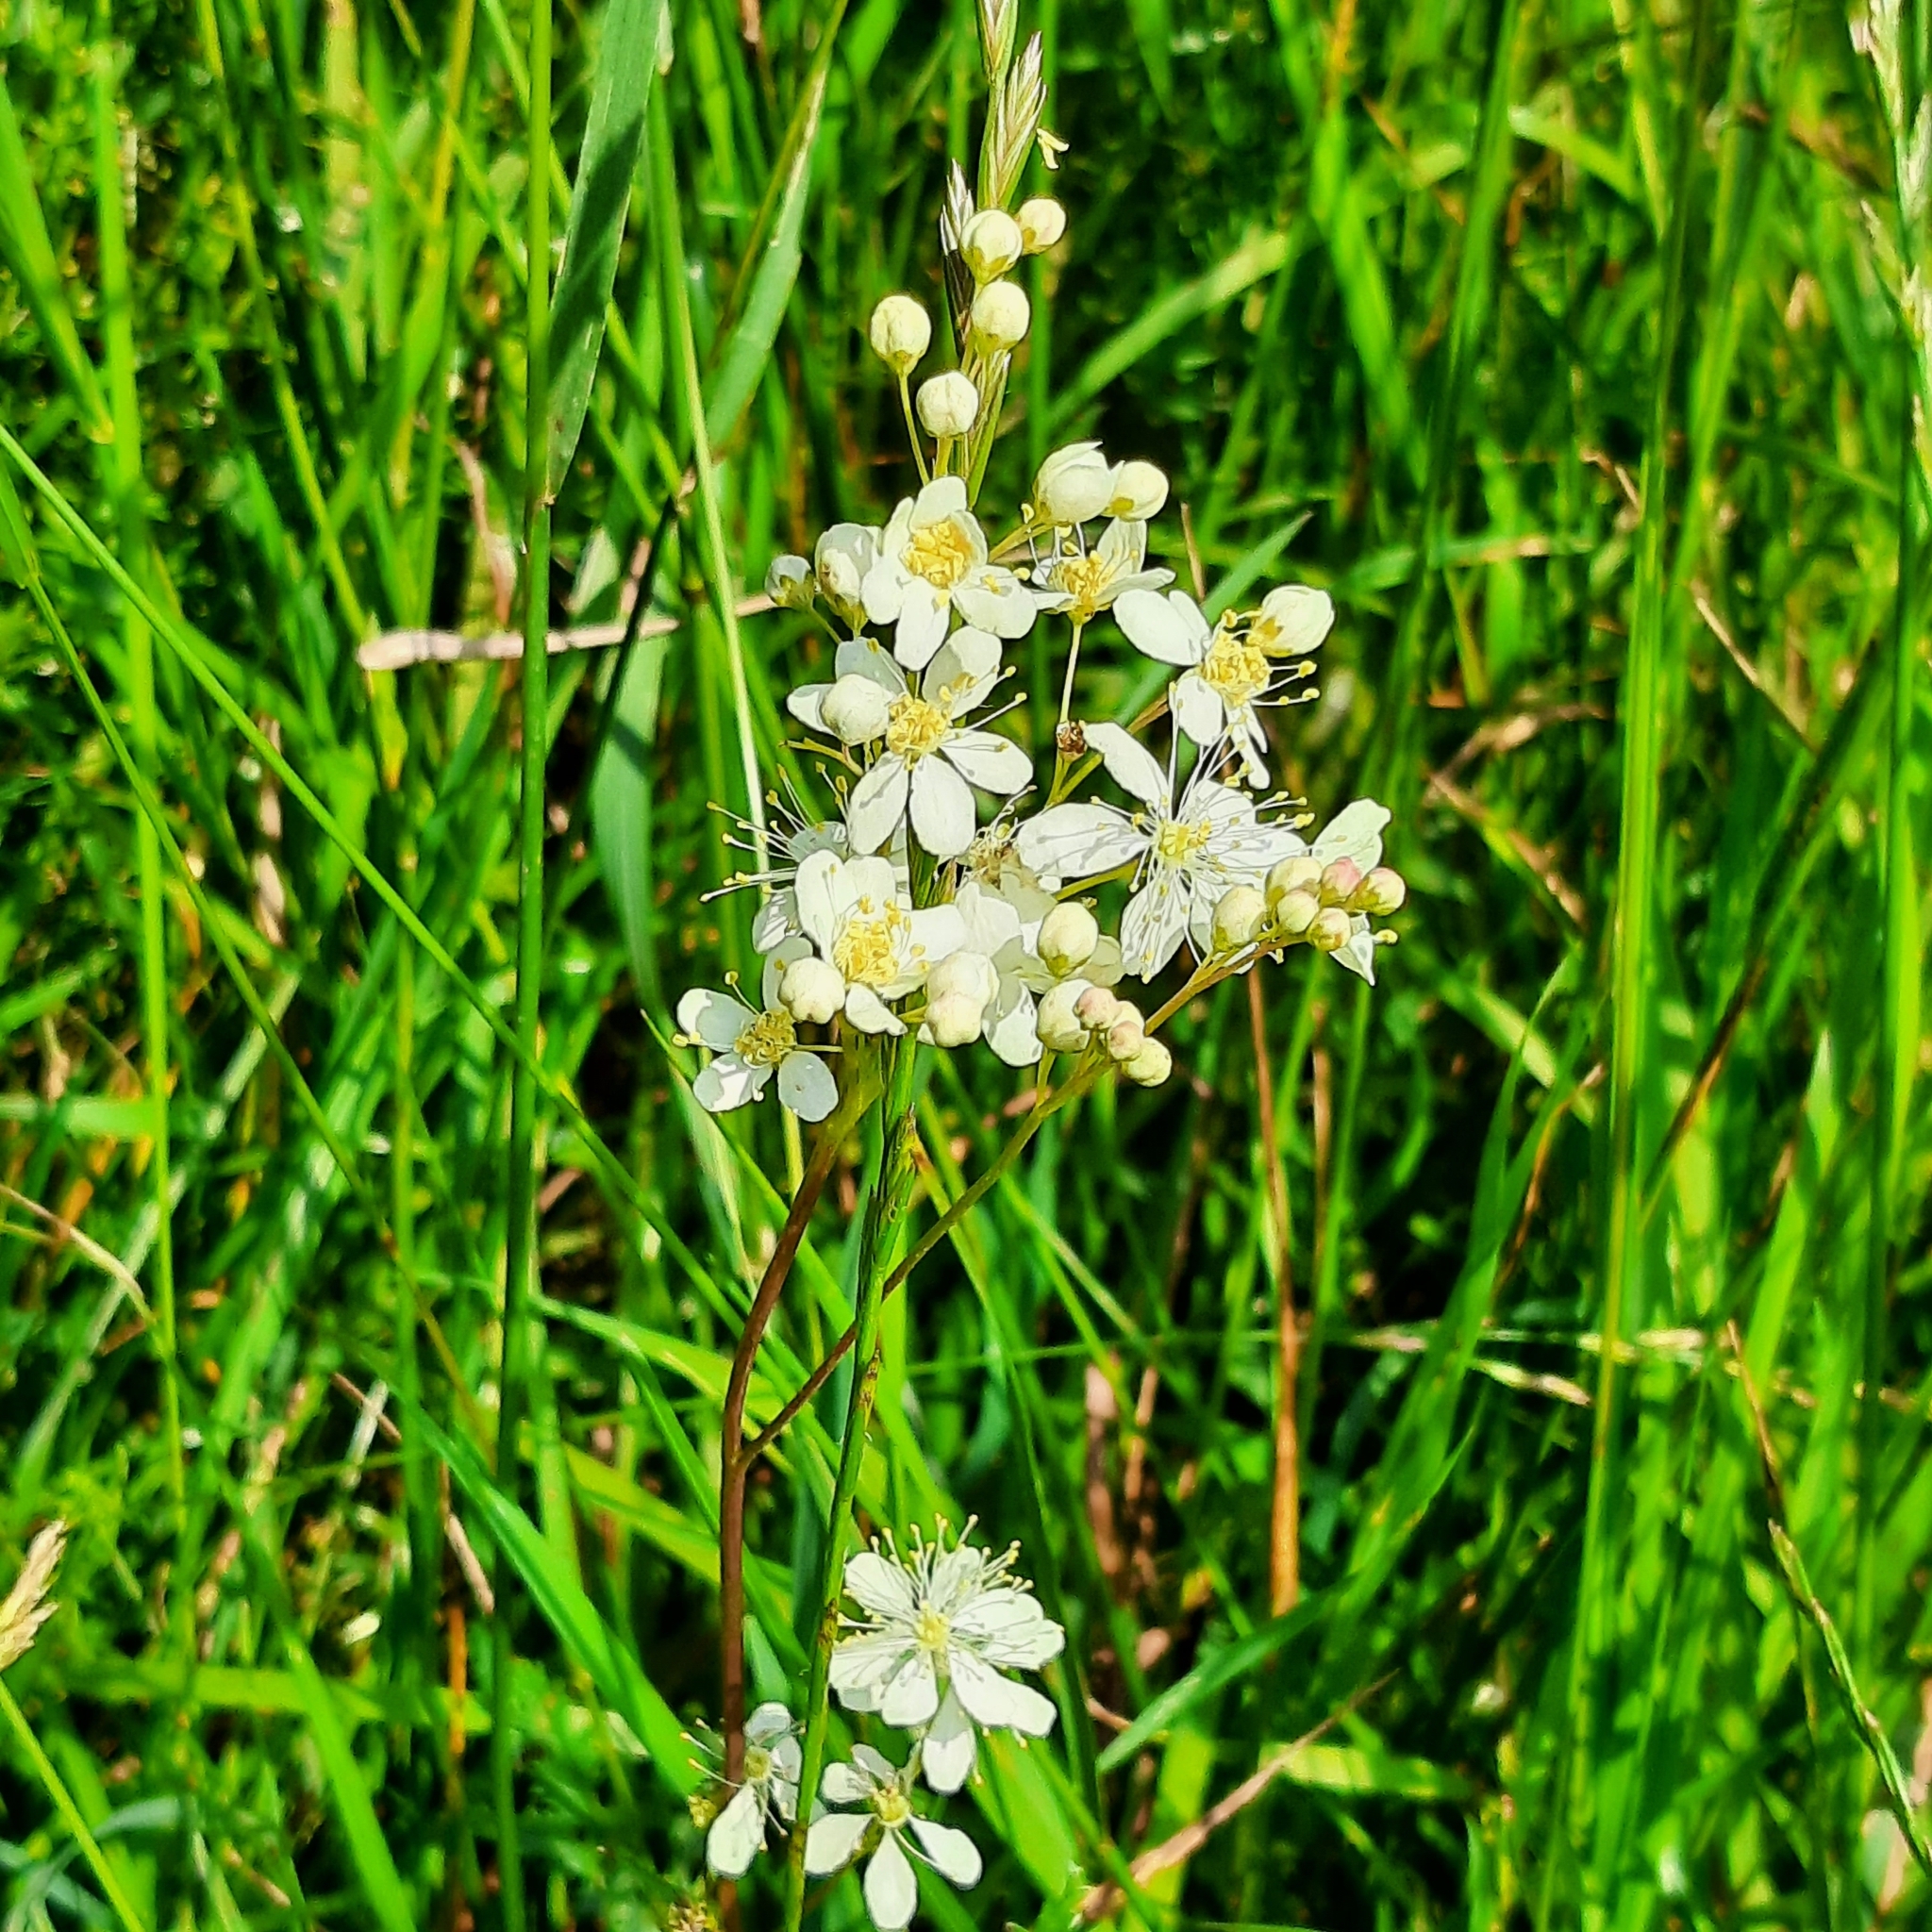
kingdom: Plantae
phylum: Tracheophyta
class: Magnoliopsida
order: Rosales
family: Rosaceae
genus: Filipendula
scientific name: Filipendula vulgaris
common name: Dropwort
